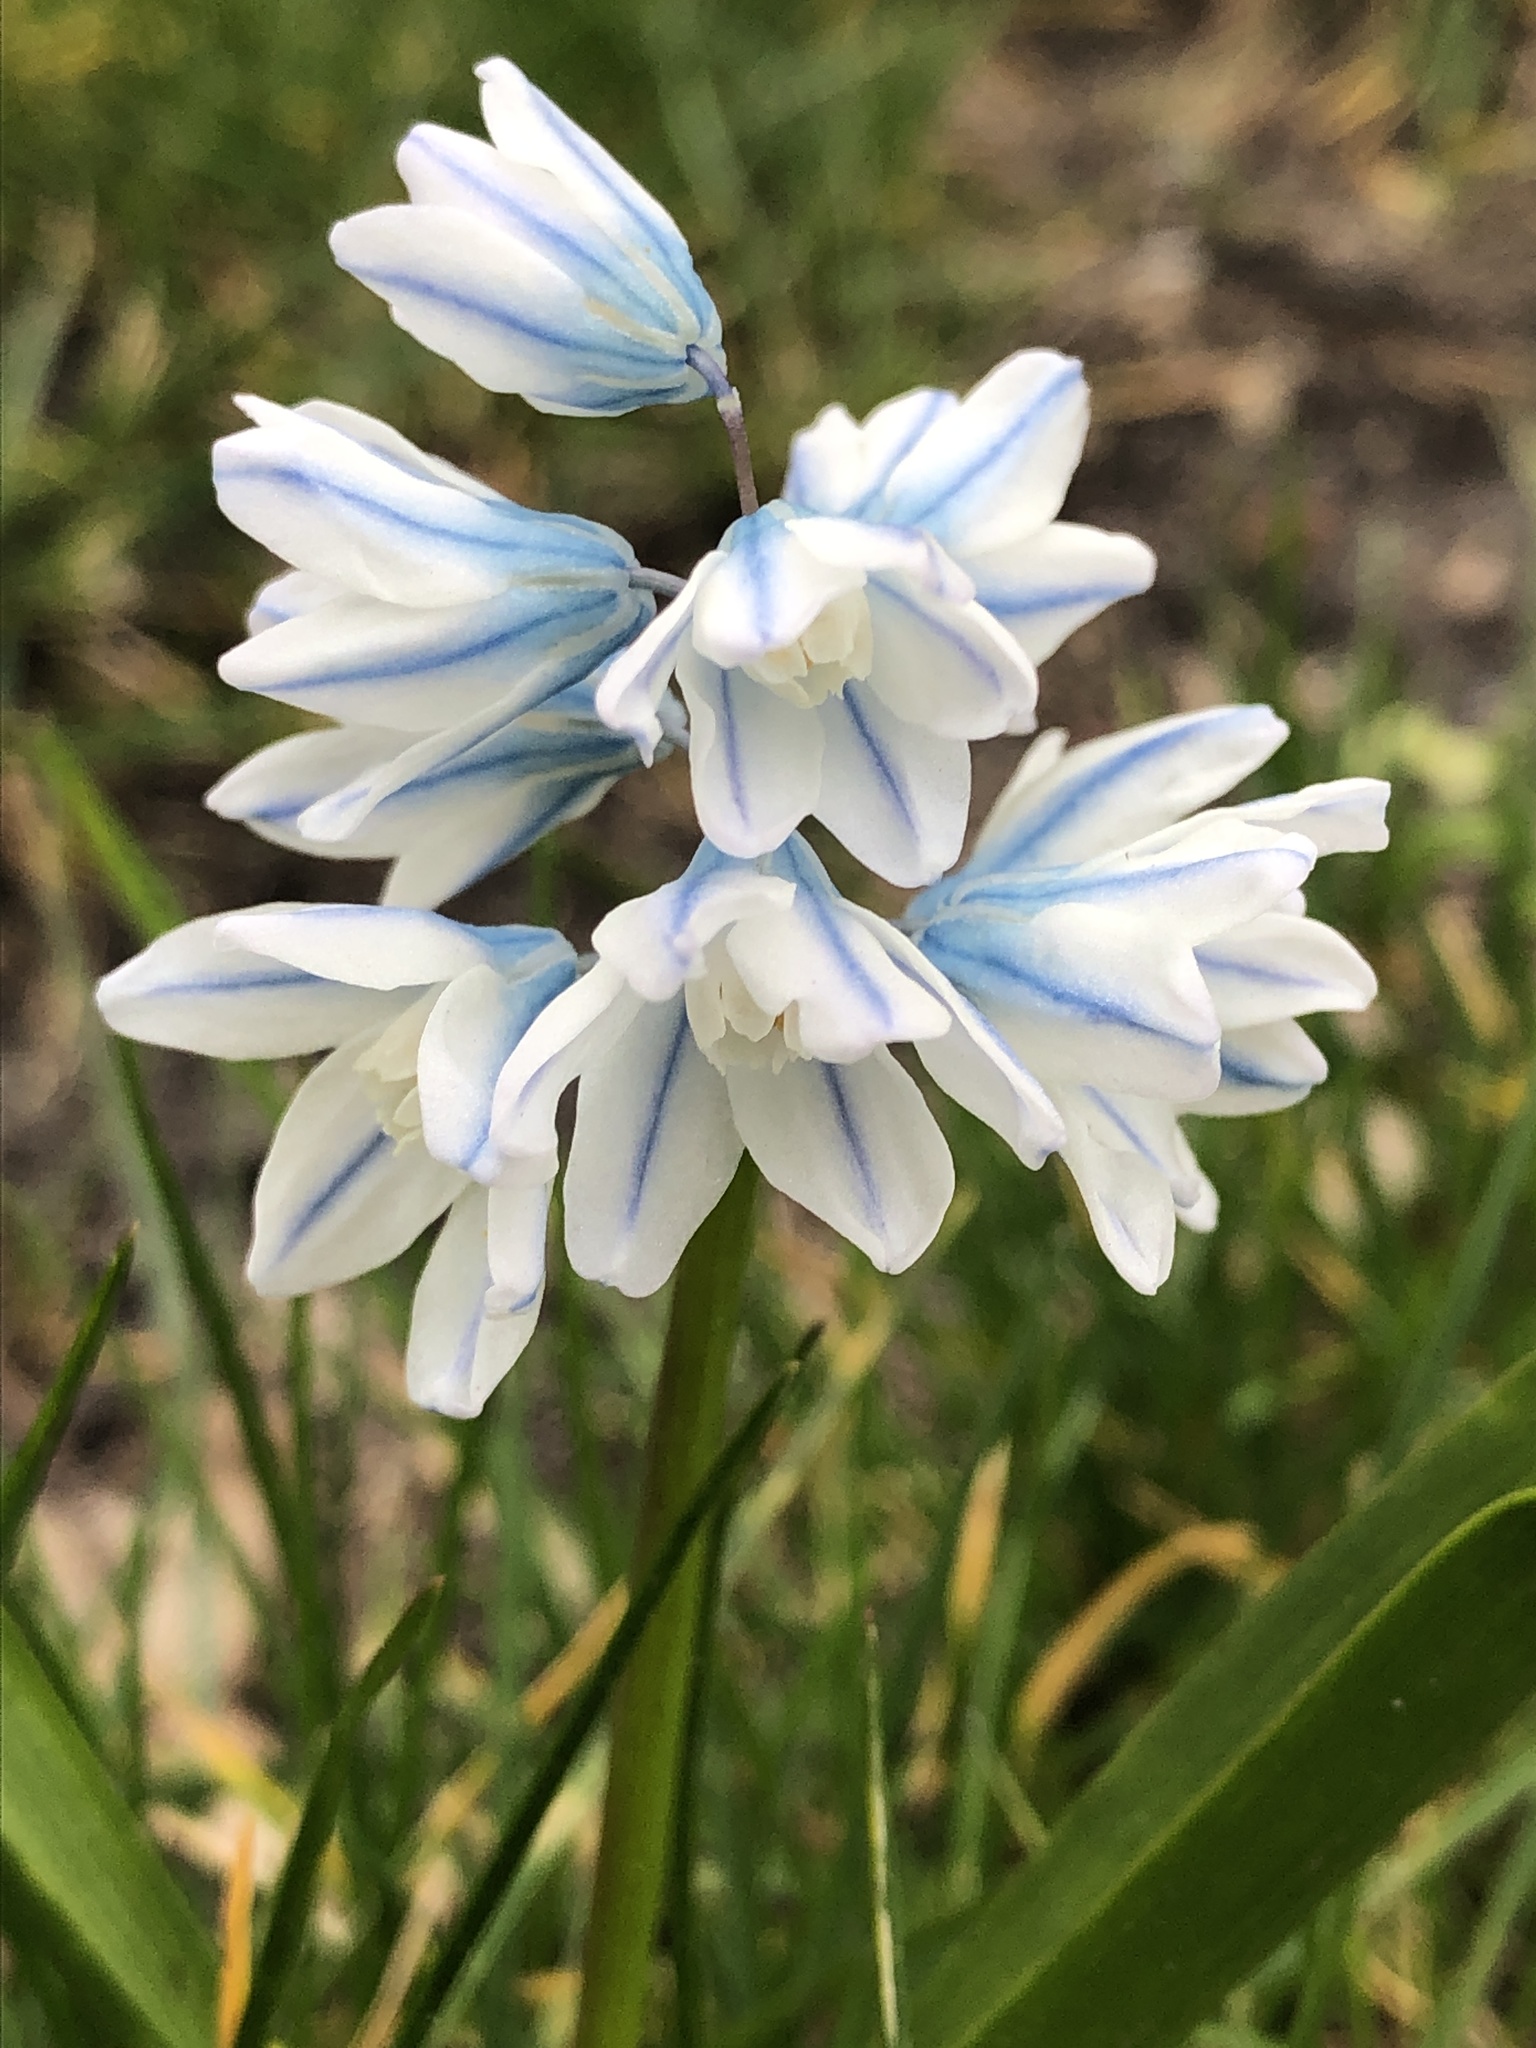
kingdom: Plantae
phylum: Tracheophyta
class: Liliopsida
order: Asparagales
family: Asparagaceae
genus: Puschkinia
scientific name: Puschkinia scilloides
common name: Striped squill
